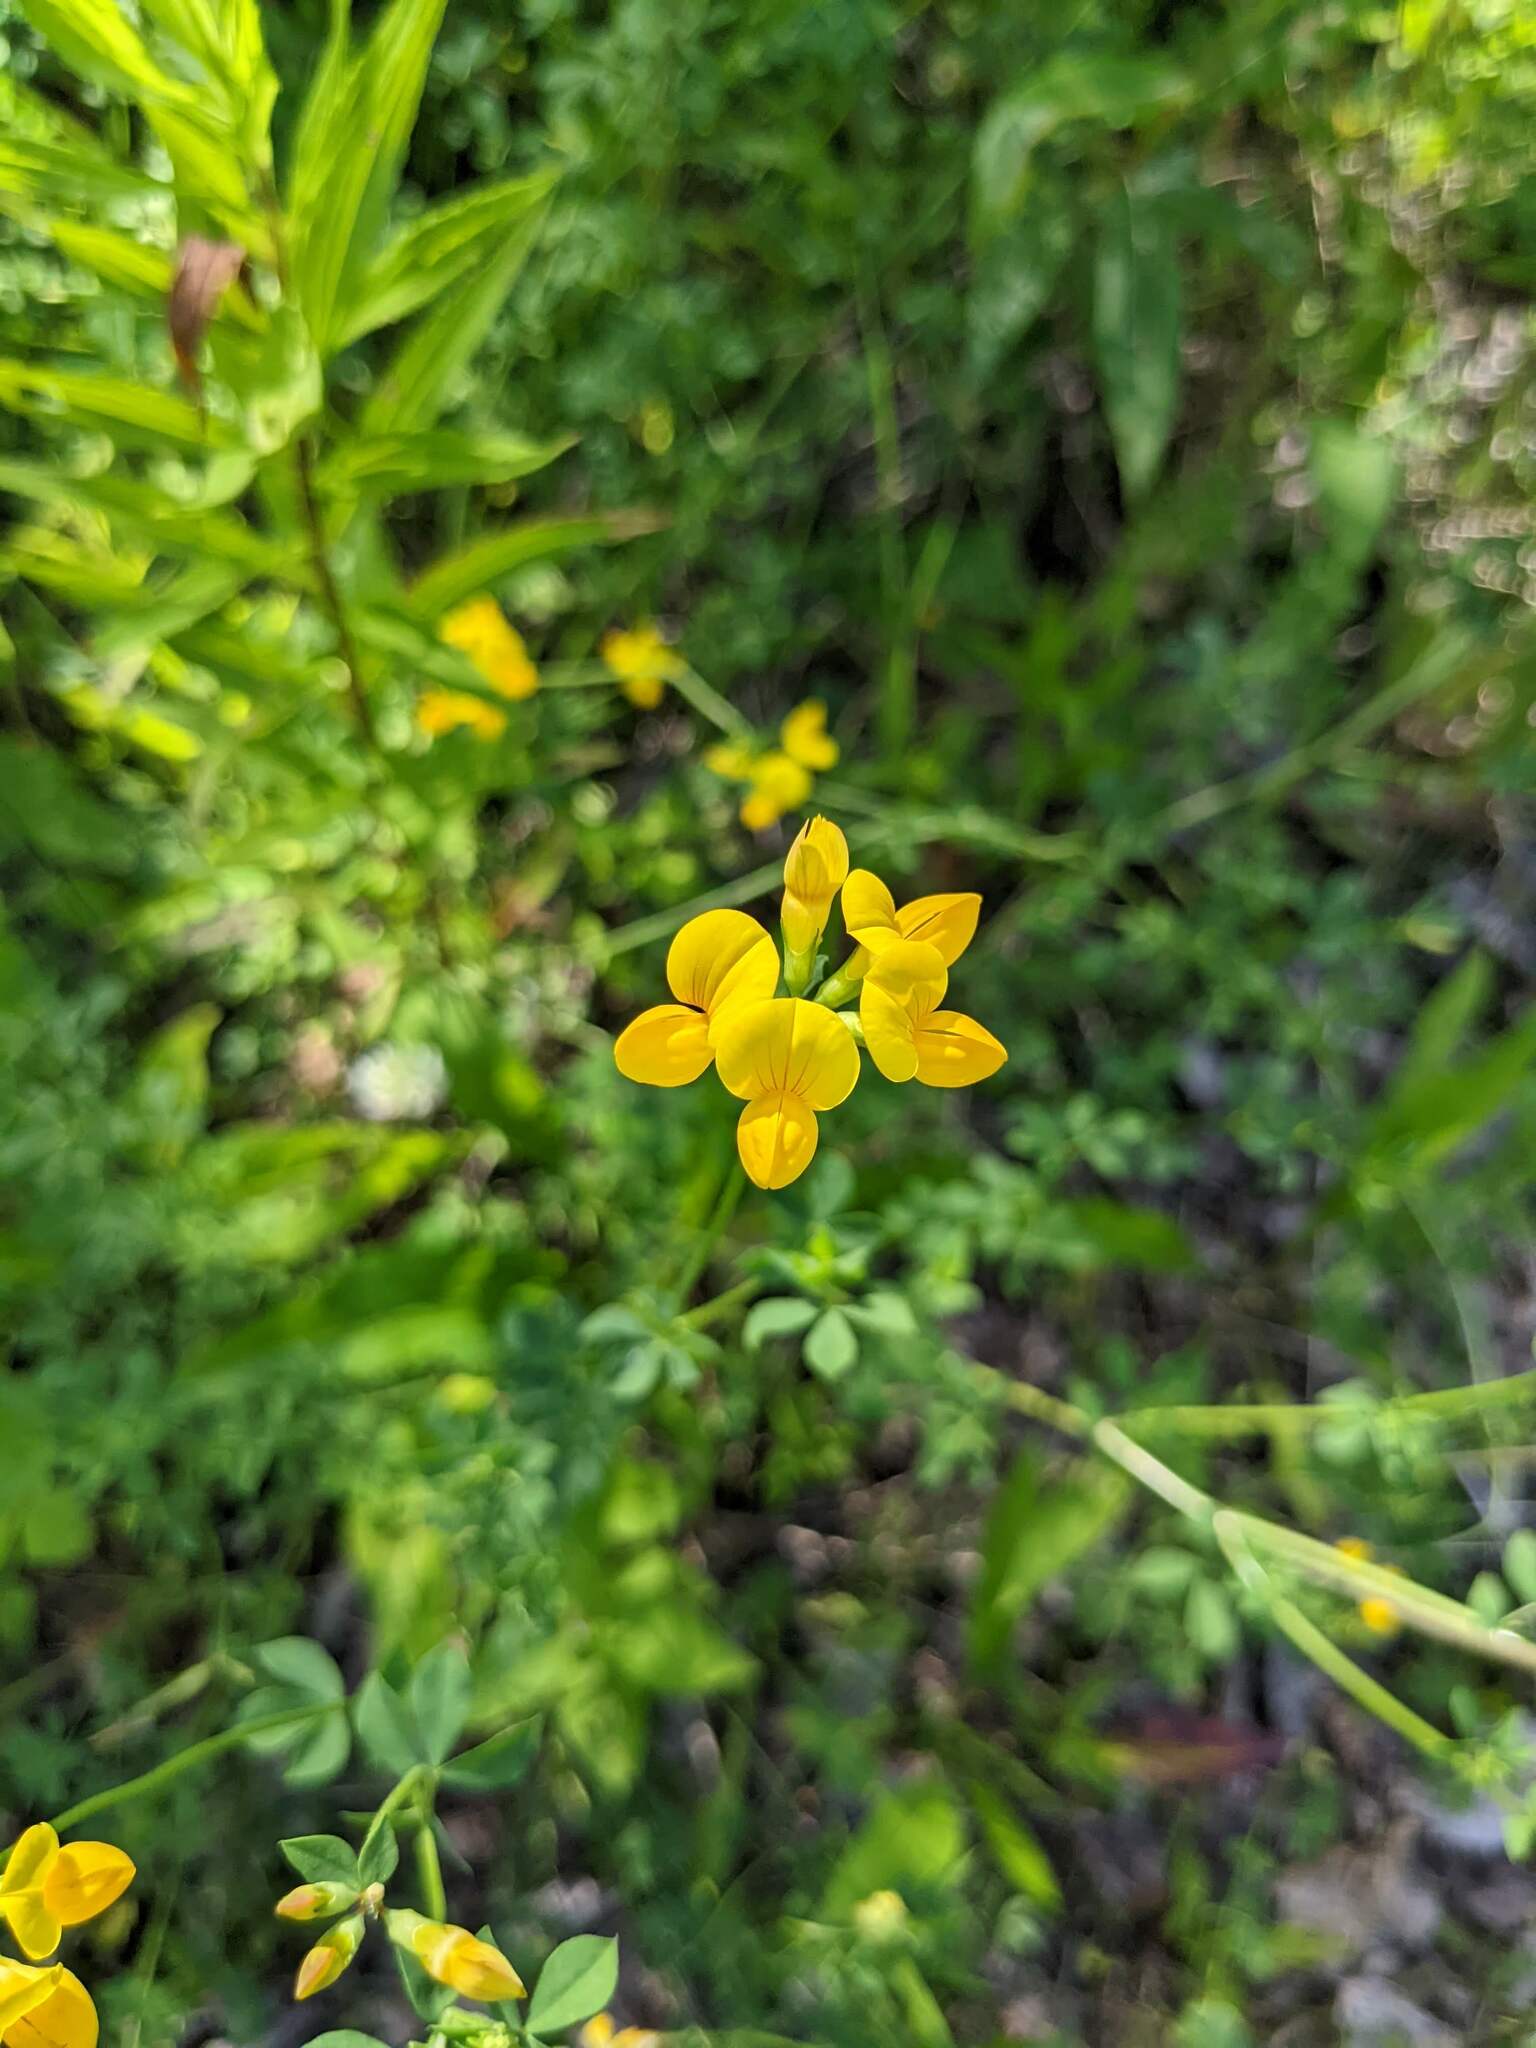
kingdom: Plantae
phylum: Tracheophyta
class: Magnoliopsida
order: Fabales
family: Fabaceae
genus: Lotus
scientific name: Lotus corniculatus
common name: Common bird's-foot-trefoil
